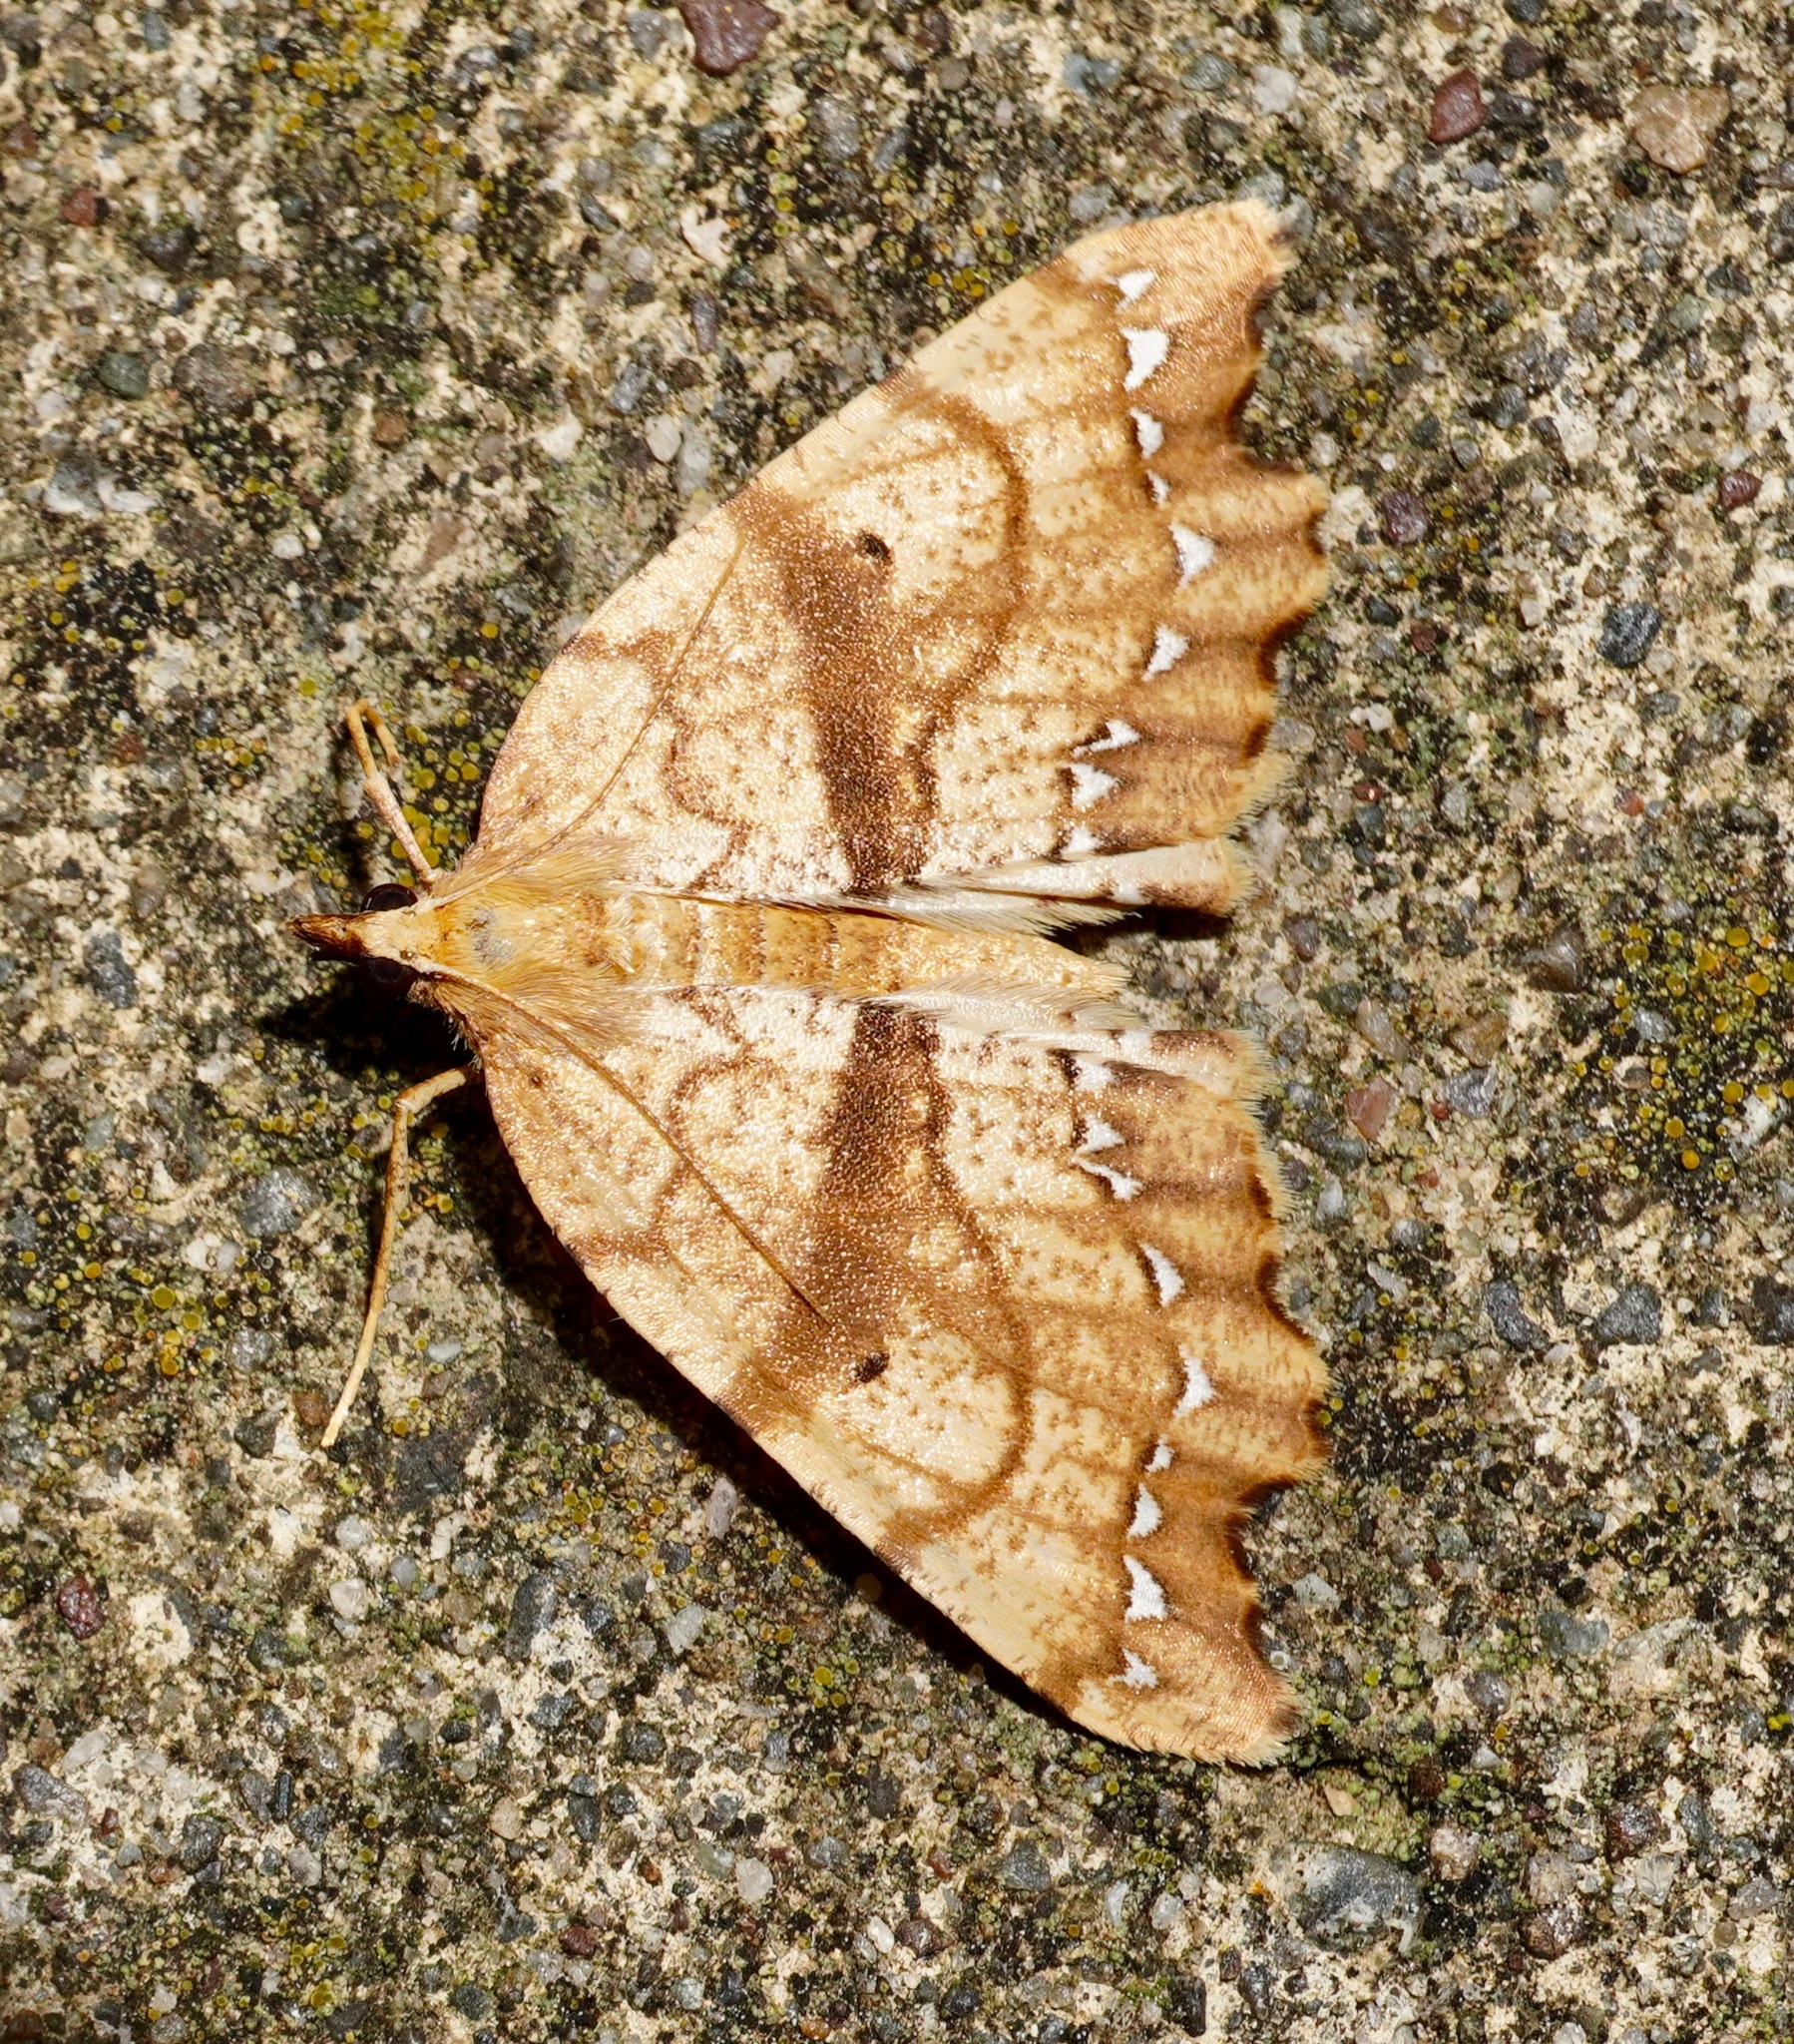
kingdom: Animalia
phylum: Arthropoda
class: Insecta
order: Lepidoptera
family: Geometridae
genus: Chalastra
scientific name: Chalastra pellurgata
